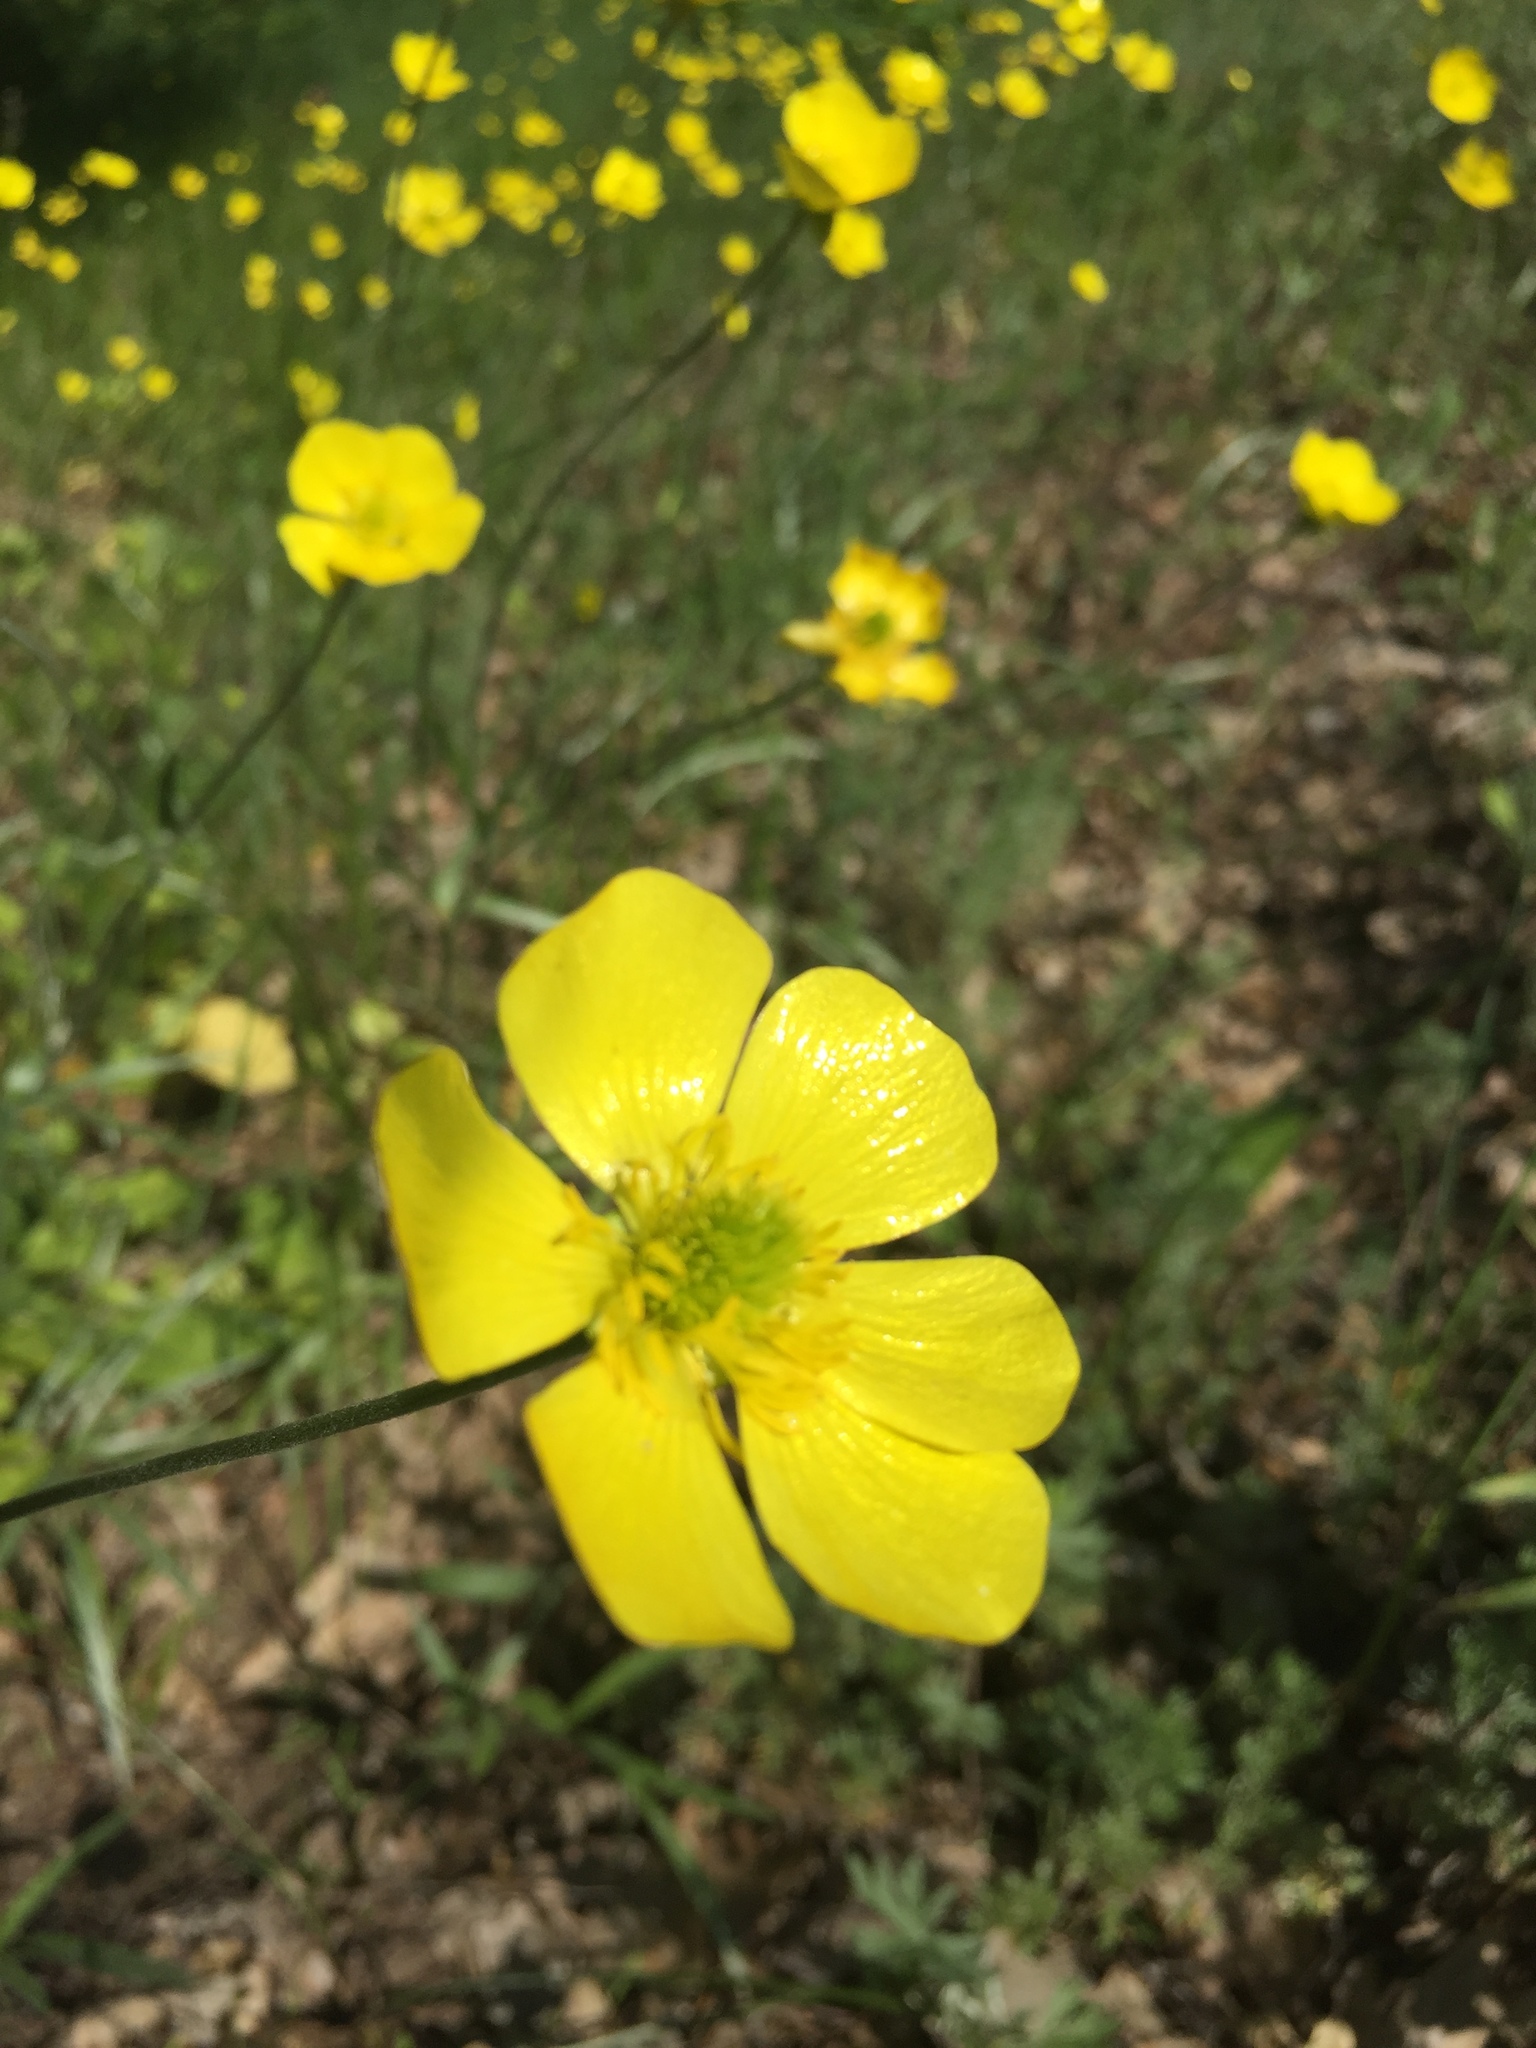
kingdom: Plantae
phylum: Tracheophyta
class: Magnoliopsida
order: Ranunculales
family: Ranunculaceae
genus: Ranunculus
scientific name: Ranunculus illyricus
